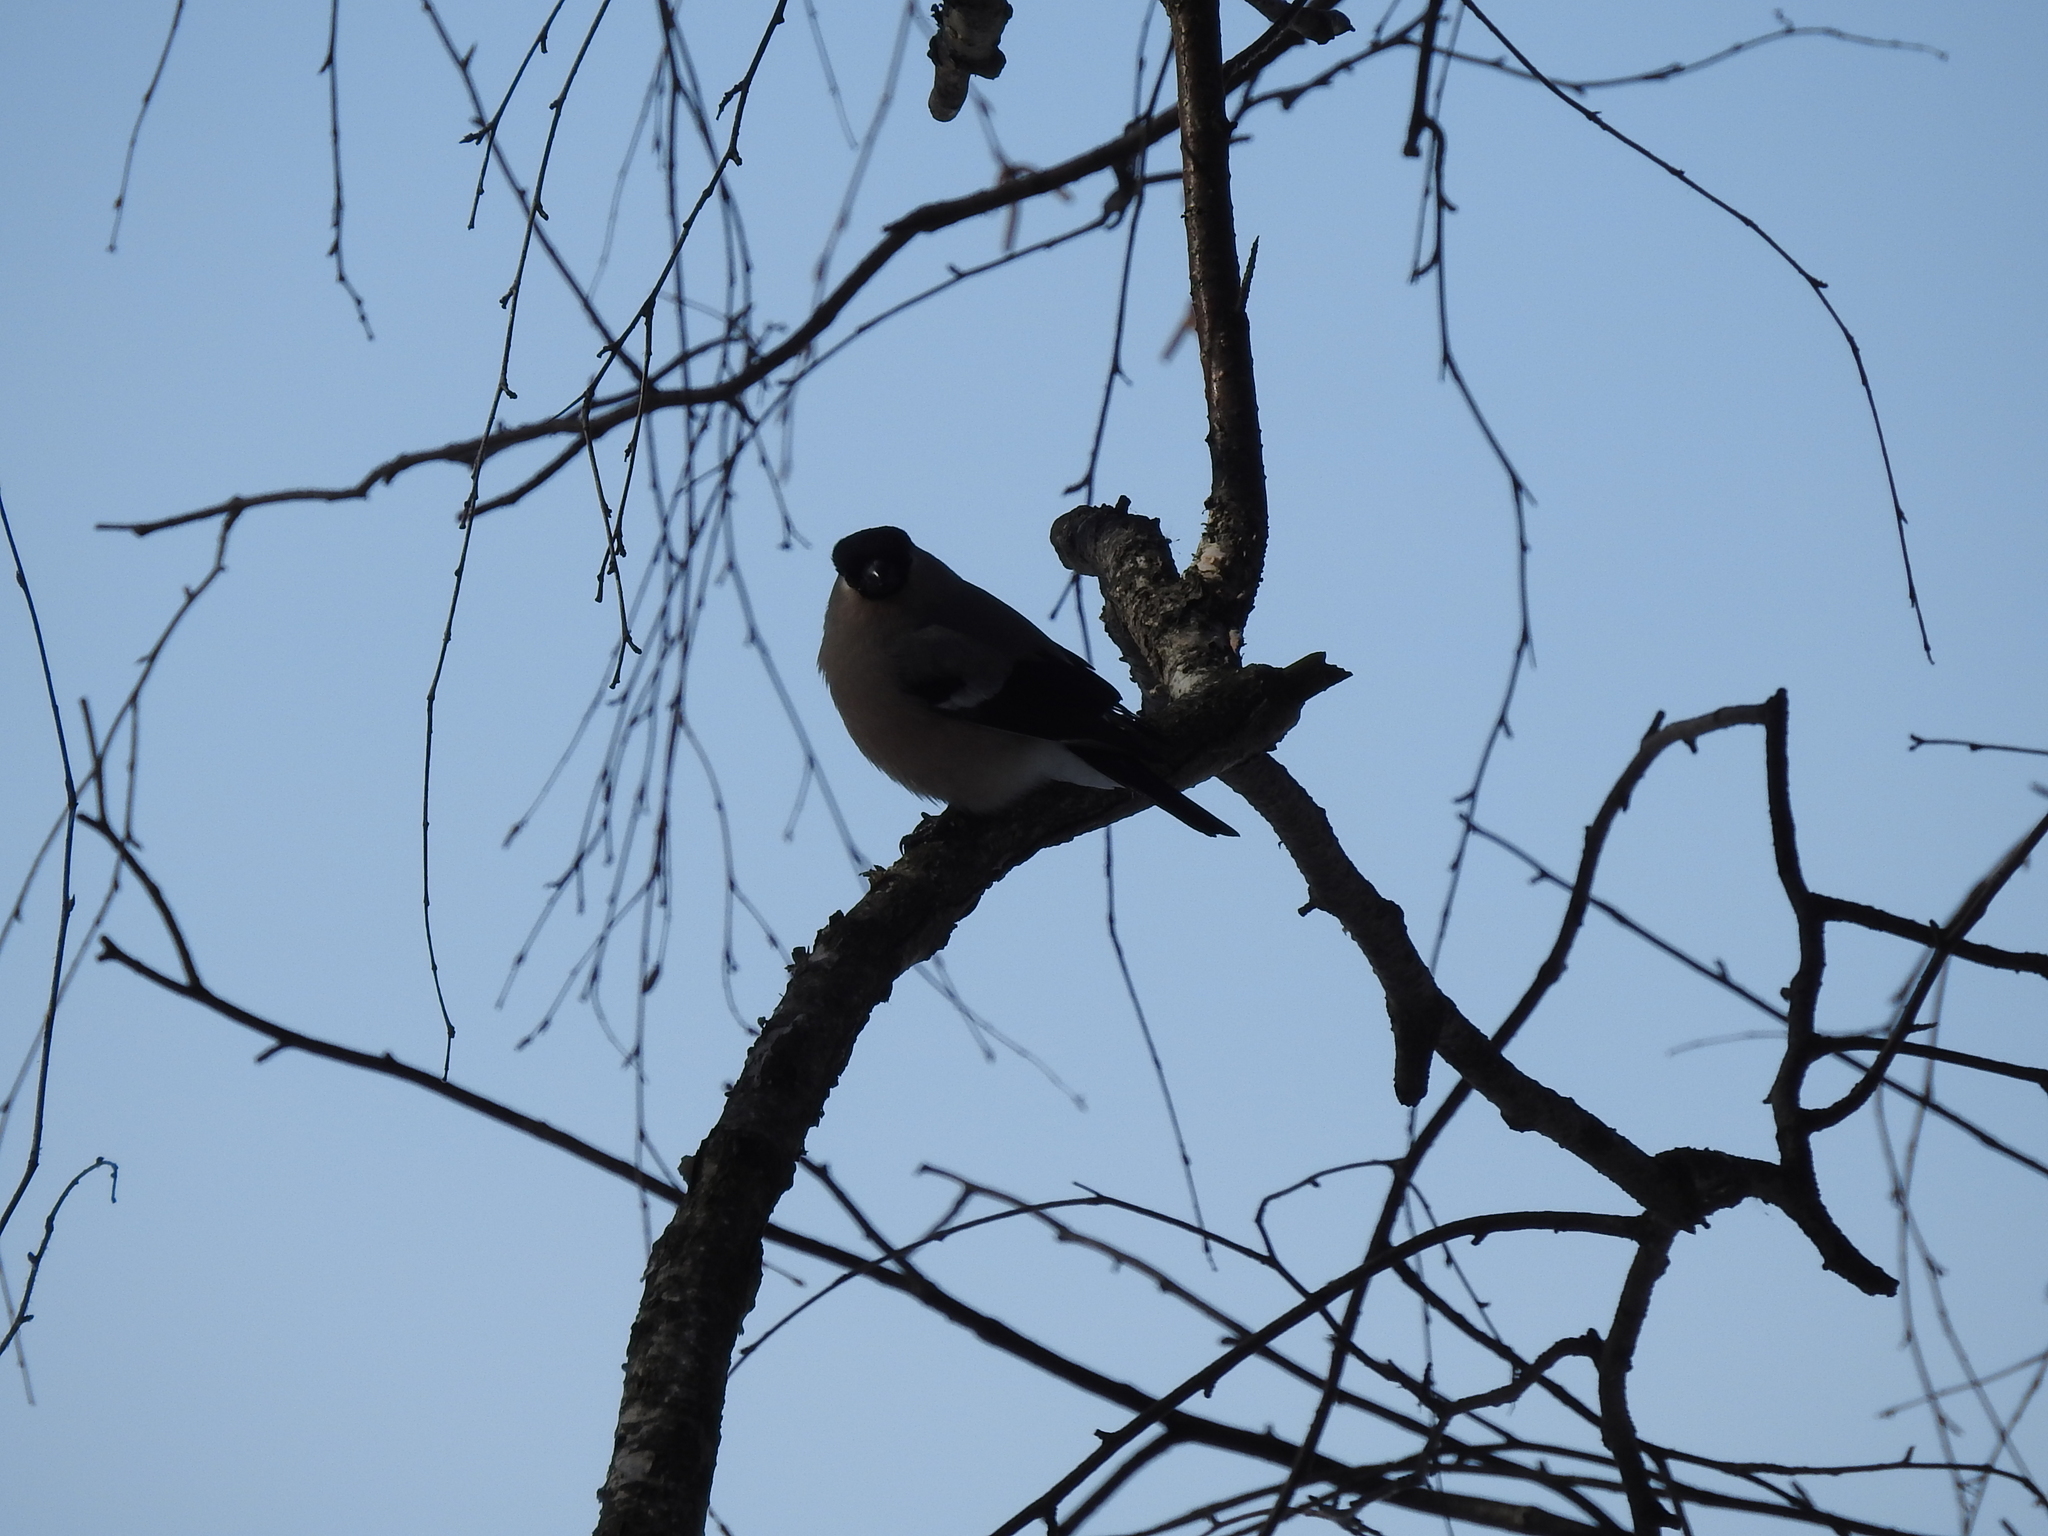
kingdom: Animalia
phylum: Chordata
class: Aves
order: Passeriformes
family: Fringillidae
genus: Pyrrhula
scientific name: Pyrrhula pyrrhula
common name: Eurasian bullfinch
